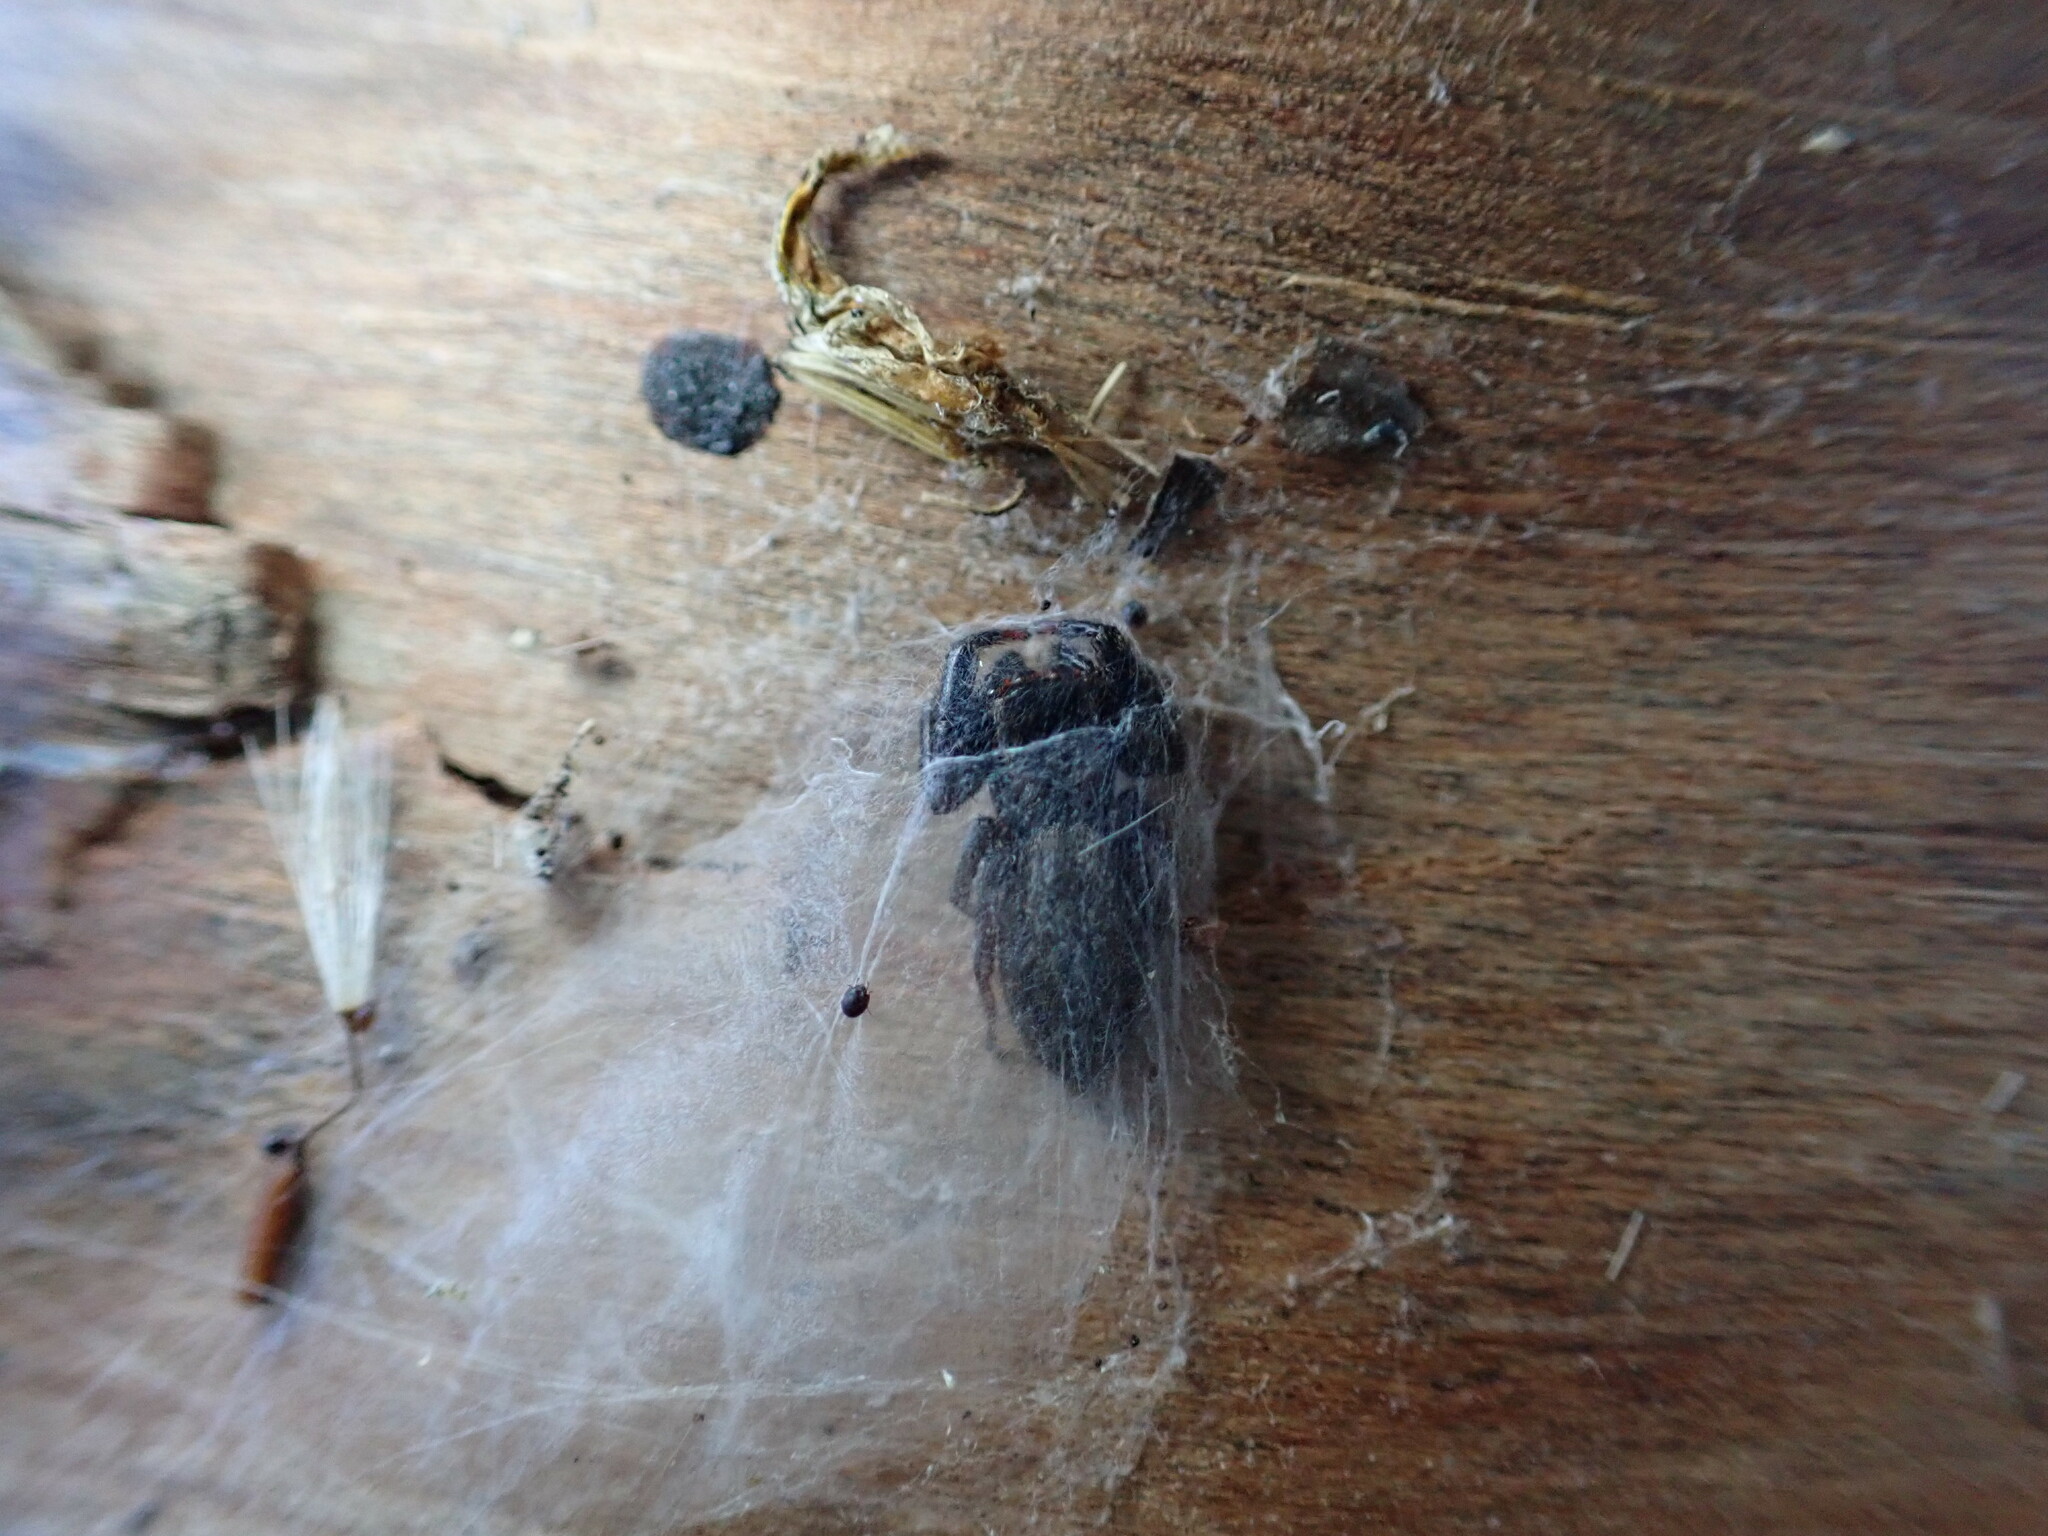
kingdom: Animalia
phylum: Arthropoda
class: Arachnida
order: Araneae
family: Salticidae
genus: Trite
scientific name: Trite auricoma
